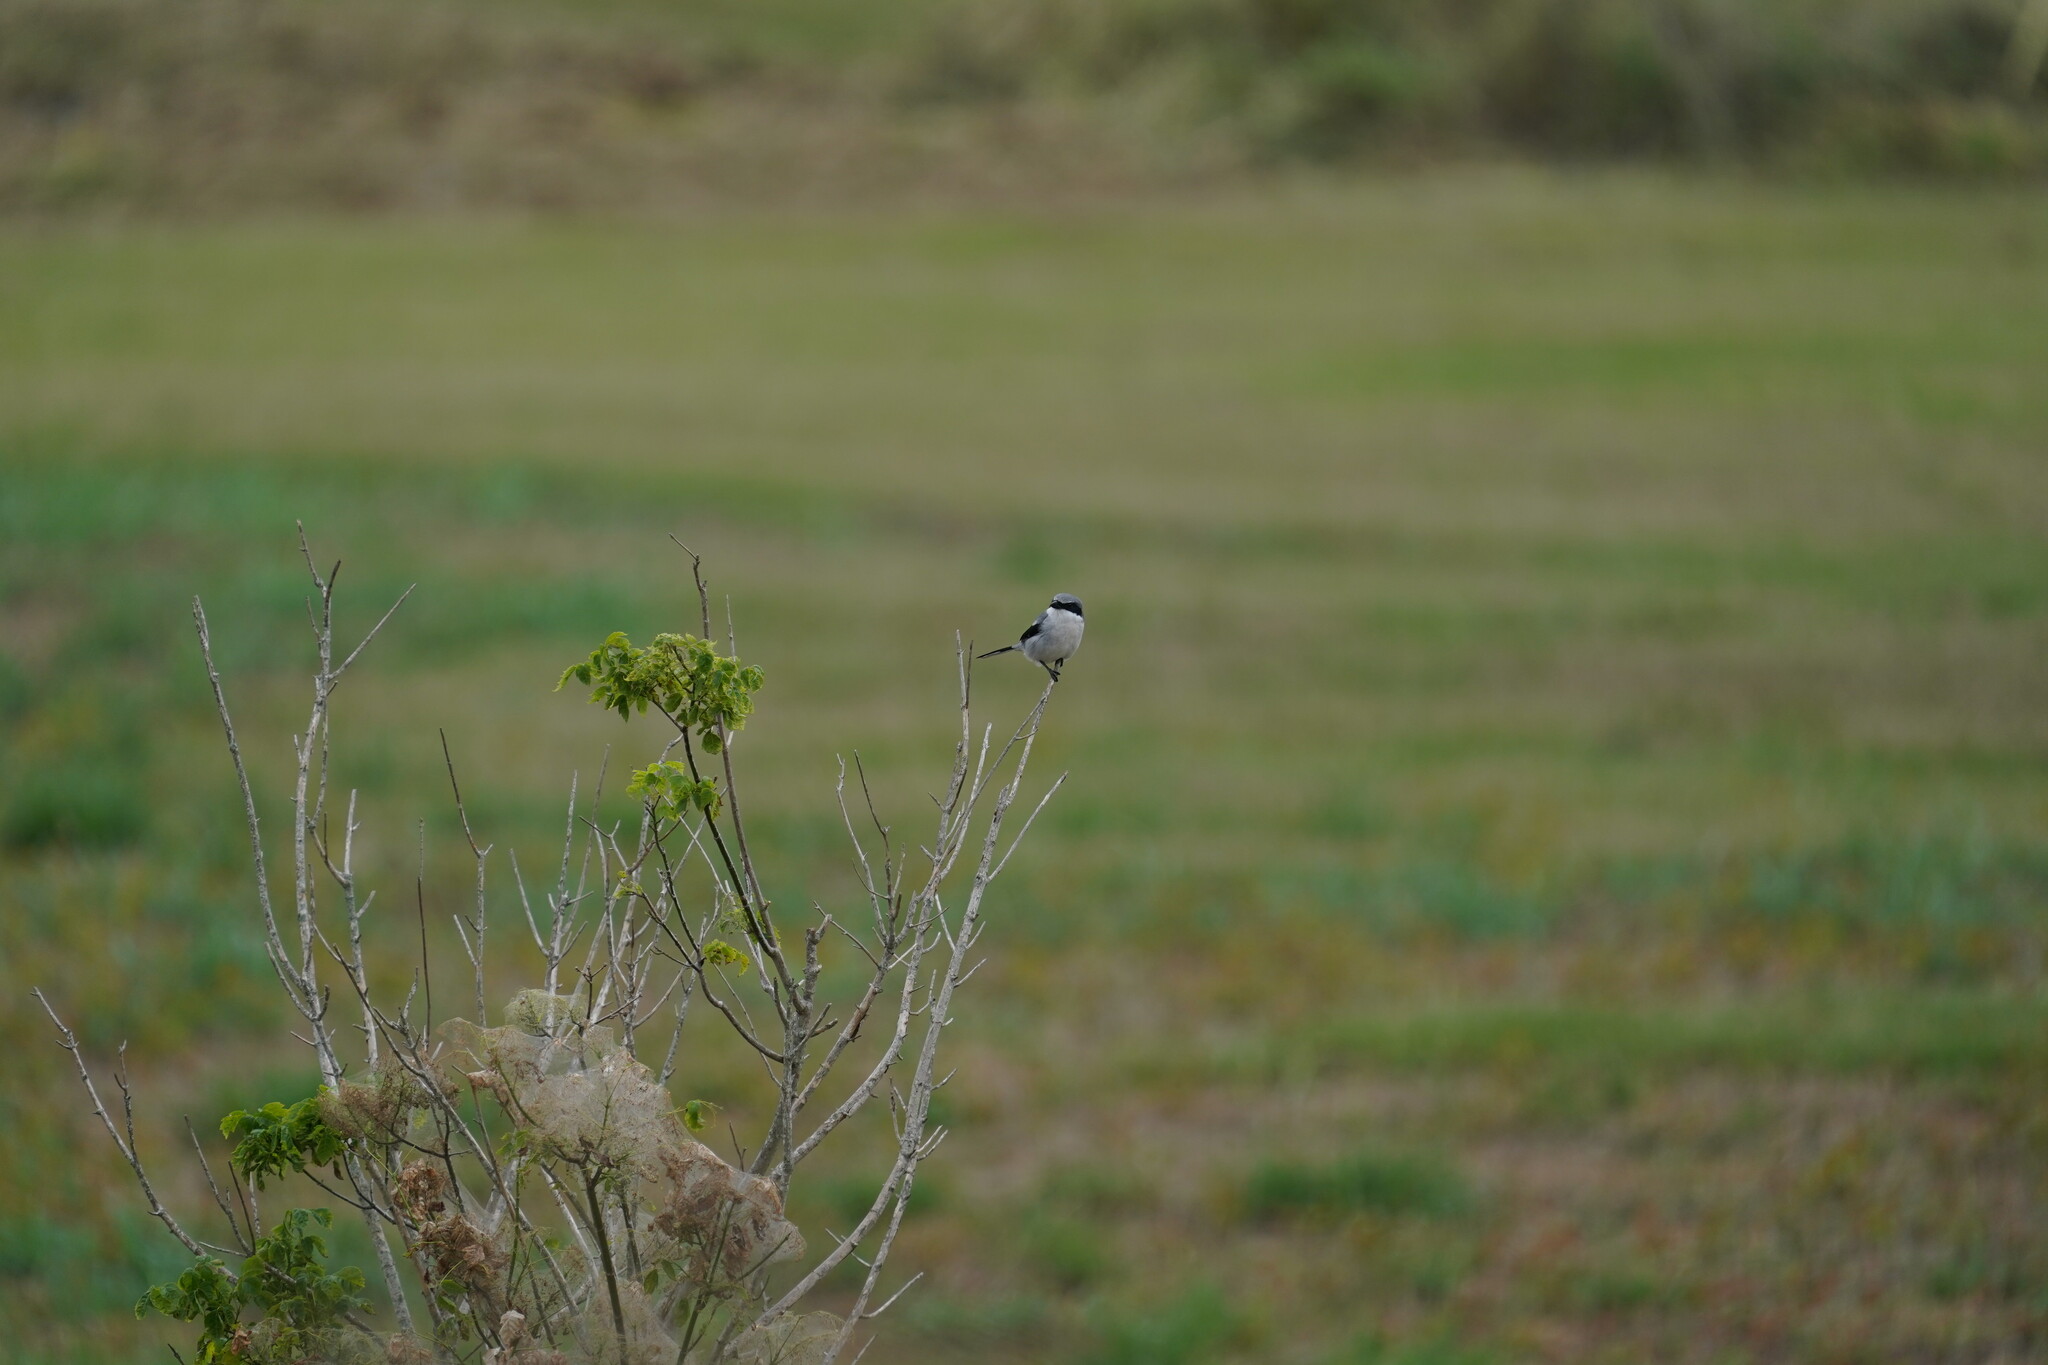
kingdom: Animalia
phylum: Chordata
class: Aves
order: Passeriformes
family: Laniidae
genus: Lanius
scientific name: Lanius ludovicianus
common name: Loggerhead shrike
